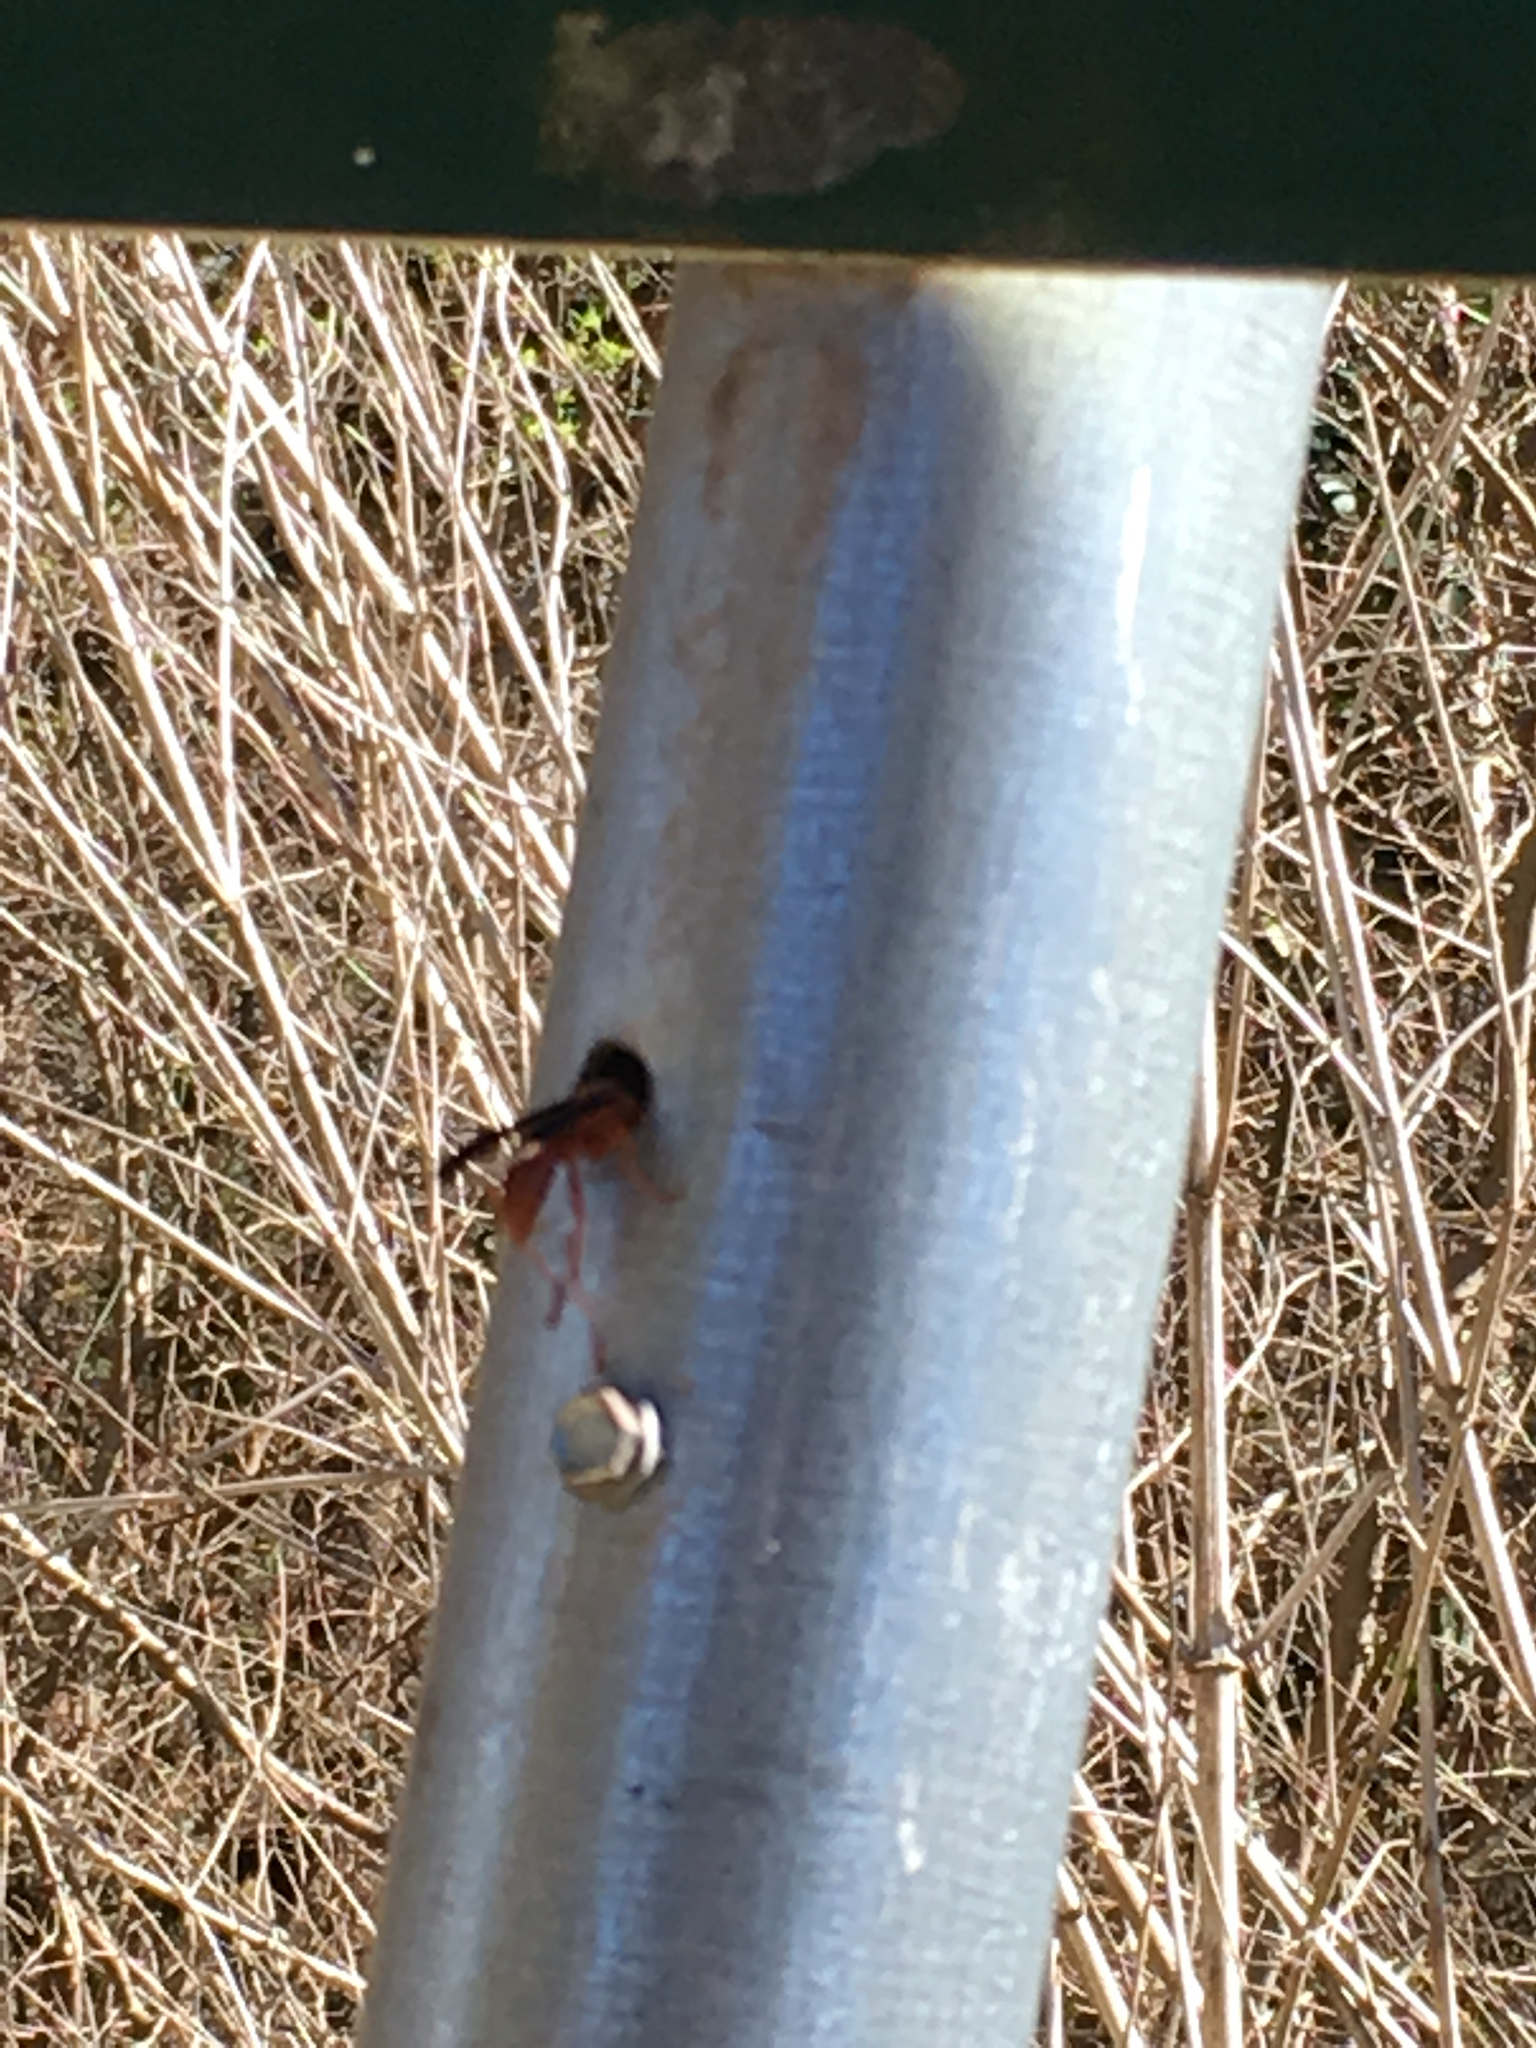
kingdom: Animalia
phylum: Arthropoda
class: Insecta
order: Hymenoptera
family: Vespidae
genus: Fuscopolistes
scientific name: Fuscopolistes
